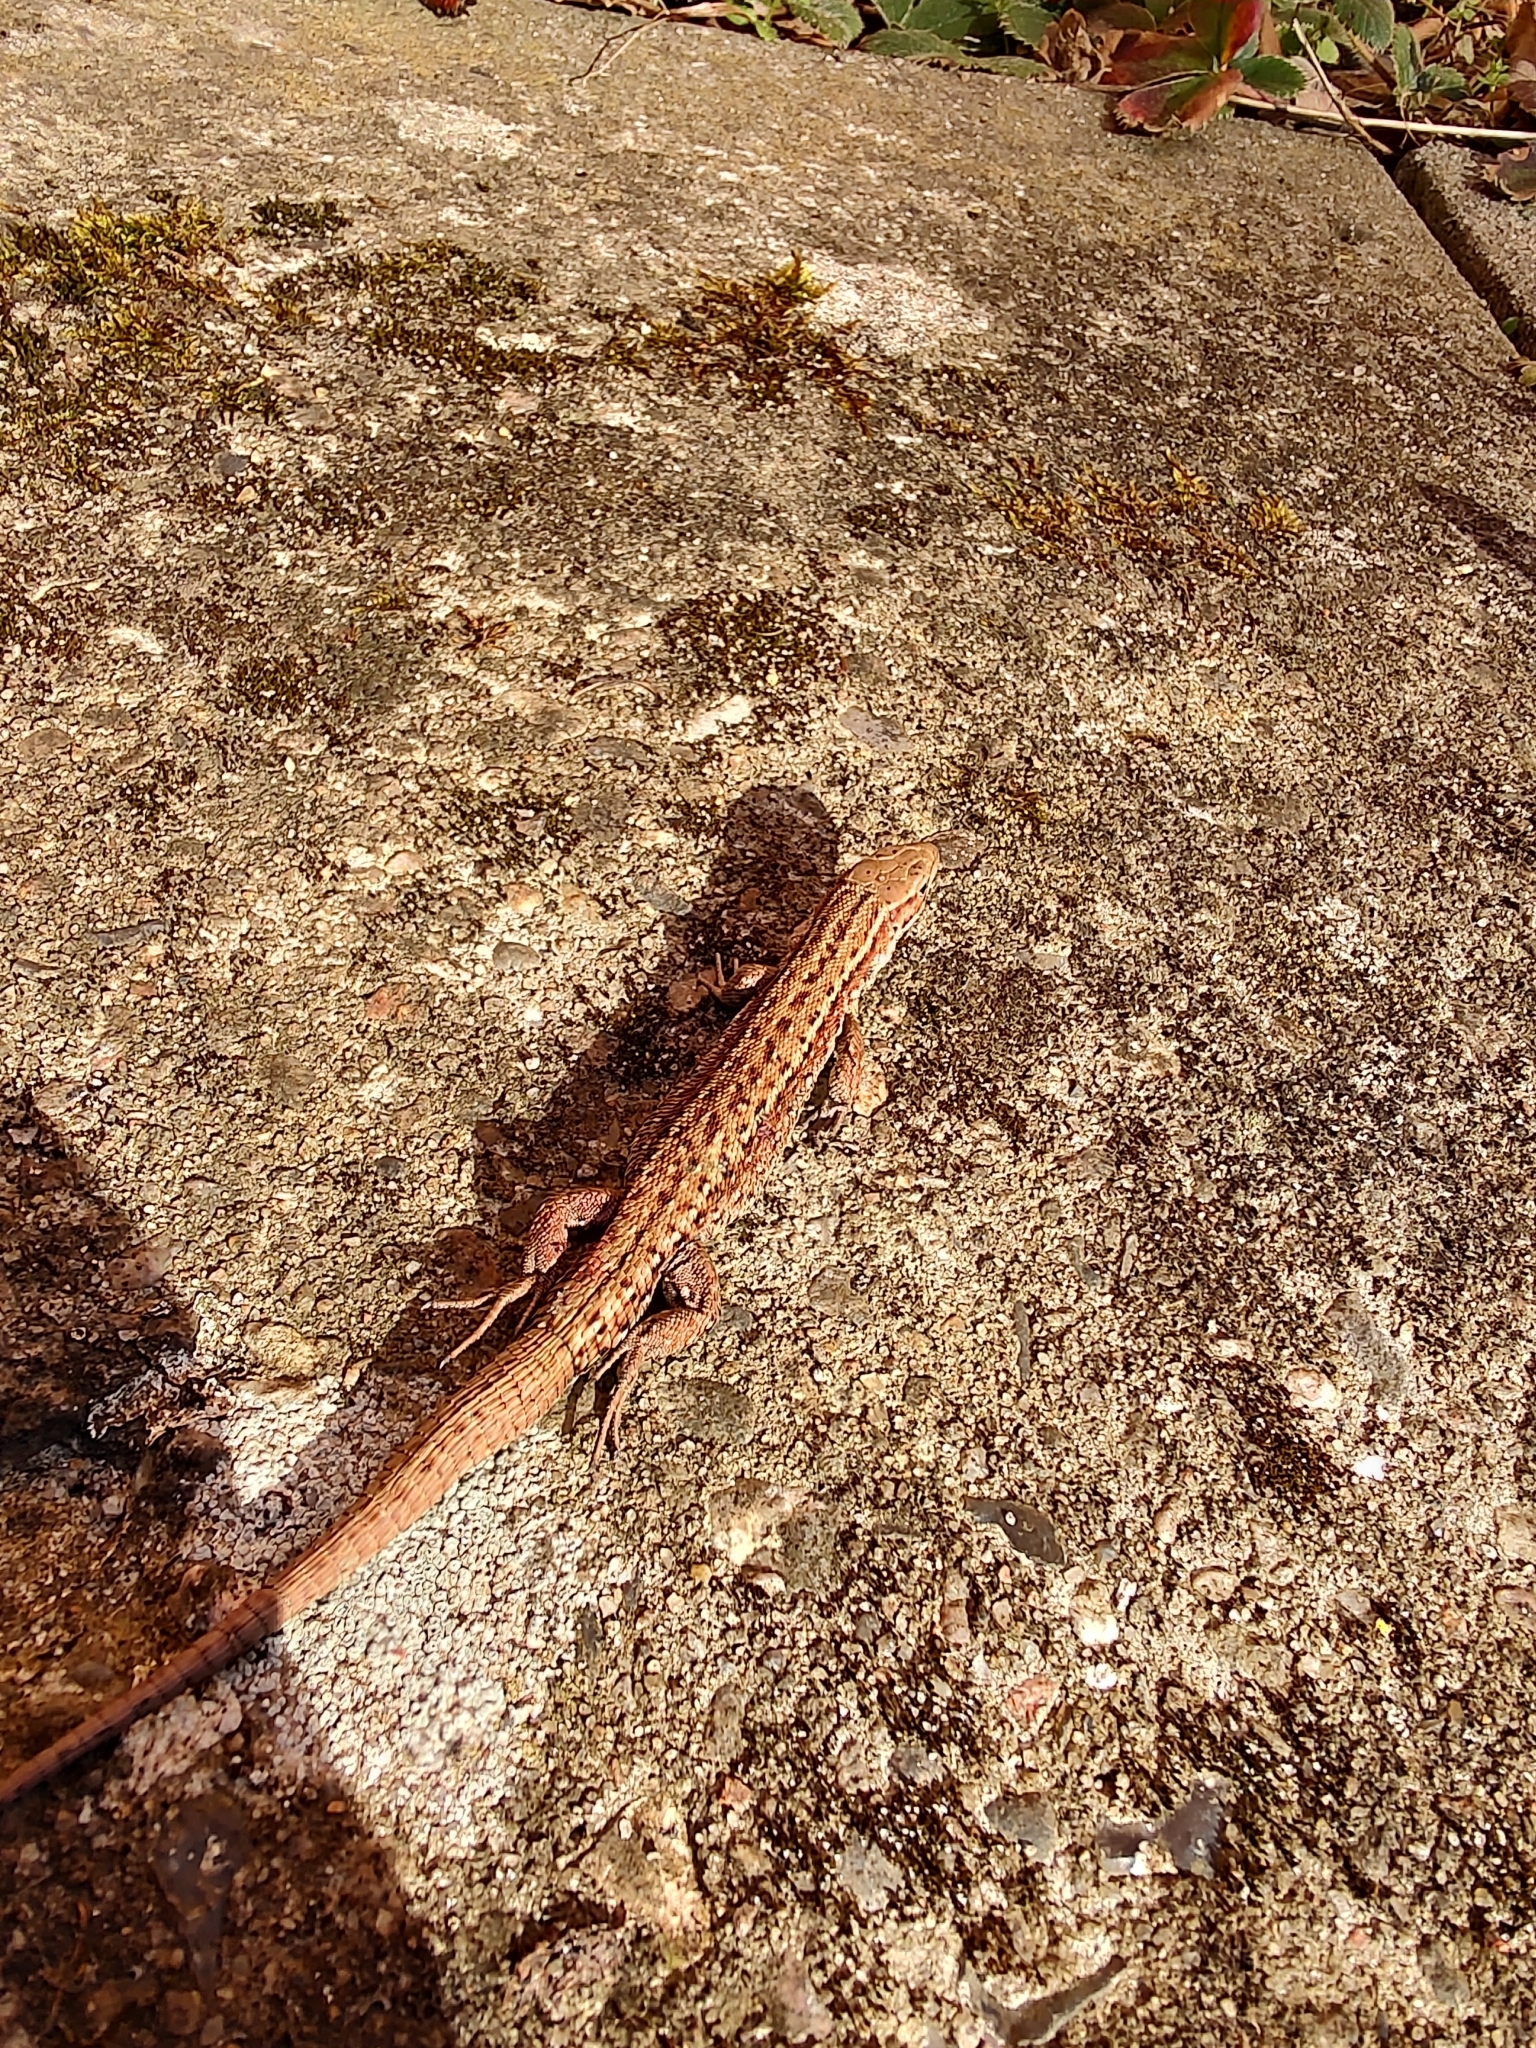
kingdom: Animalia
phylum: Chordata
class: Squamata
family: Lacertidae
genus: Zootoca
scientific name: Zootoca vivipara
